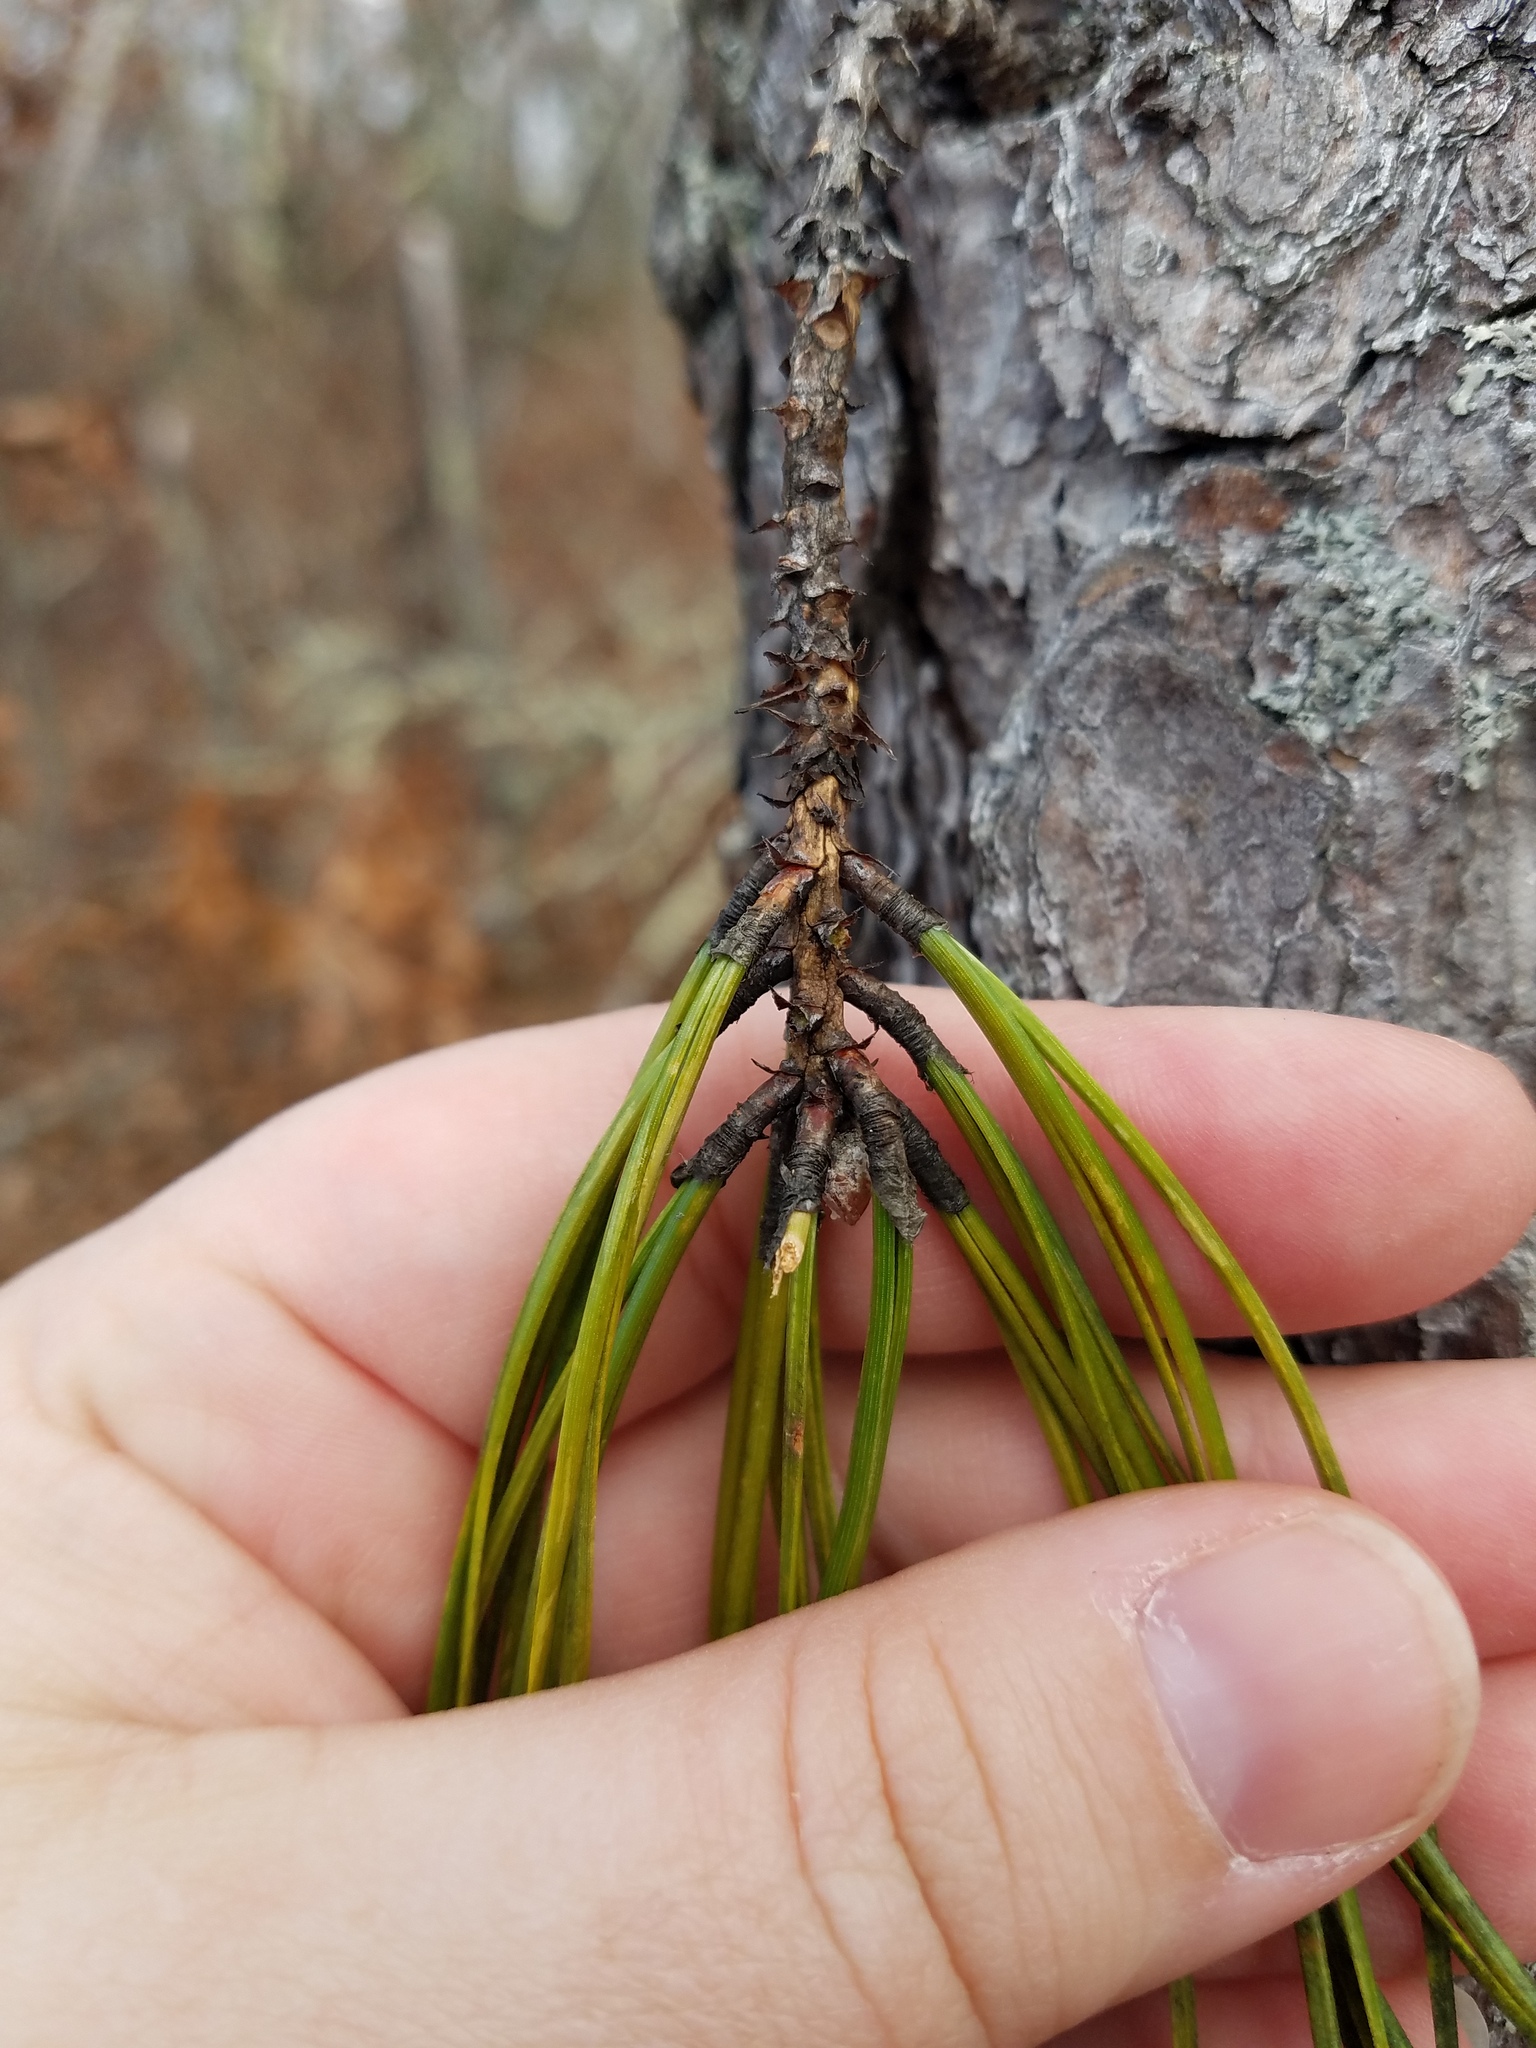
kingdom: Plantae
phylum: Tracheophyta
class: Pinopsida
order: Pinales
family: Pinaceae
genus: Pinus
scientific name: Pinus rigida
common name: Pitch pine
